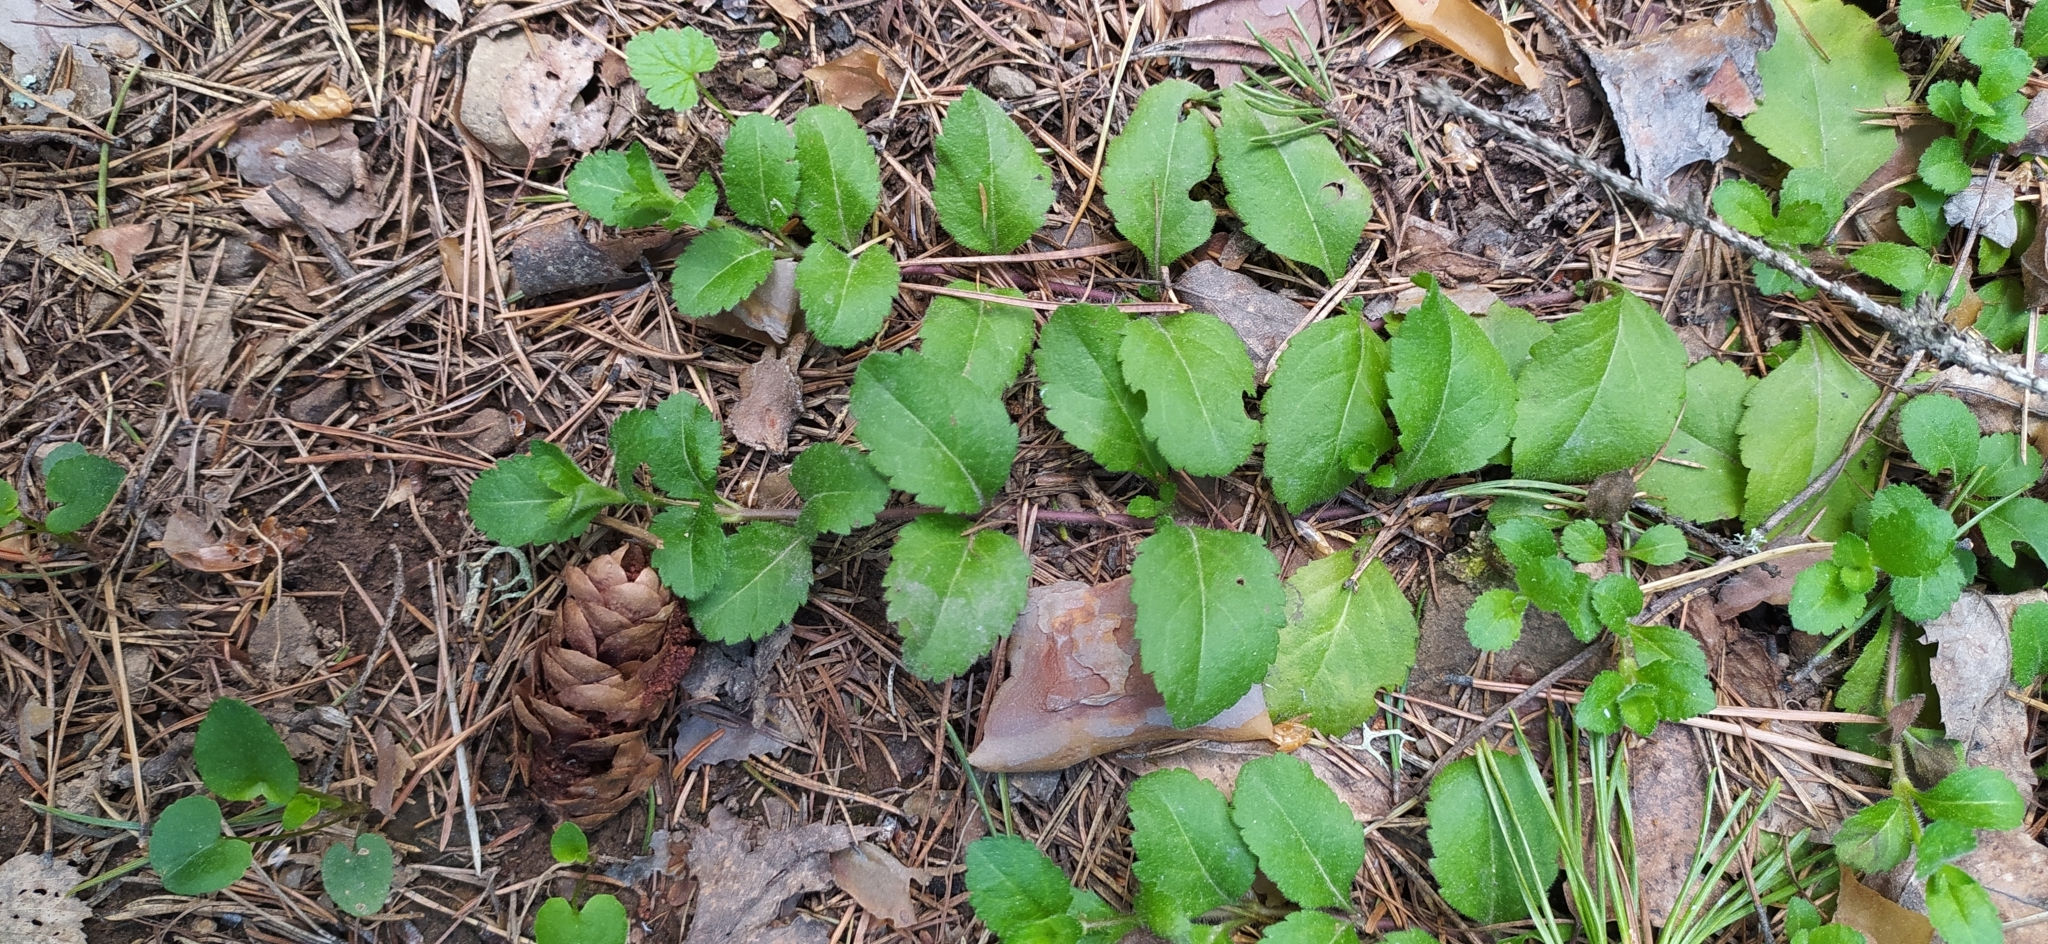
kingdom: Plantae
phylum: Tracheophyta
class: Magnoliopsida
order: Lamiales
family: Plantaginaceae
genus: Veronica
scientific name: Veronica officinalis
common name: Common speedwell
